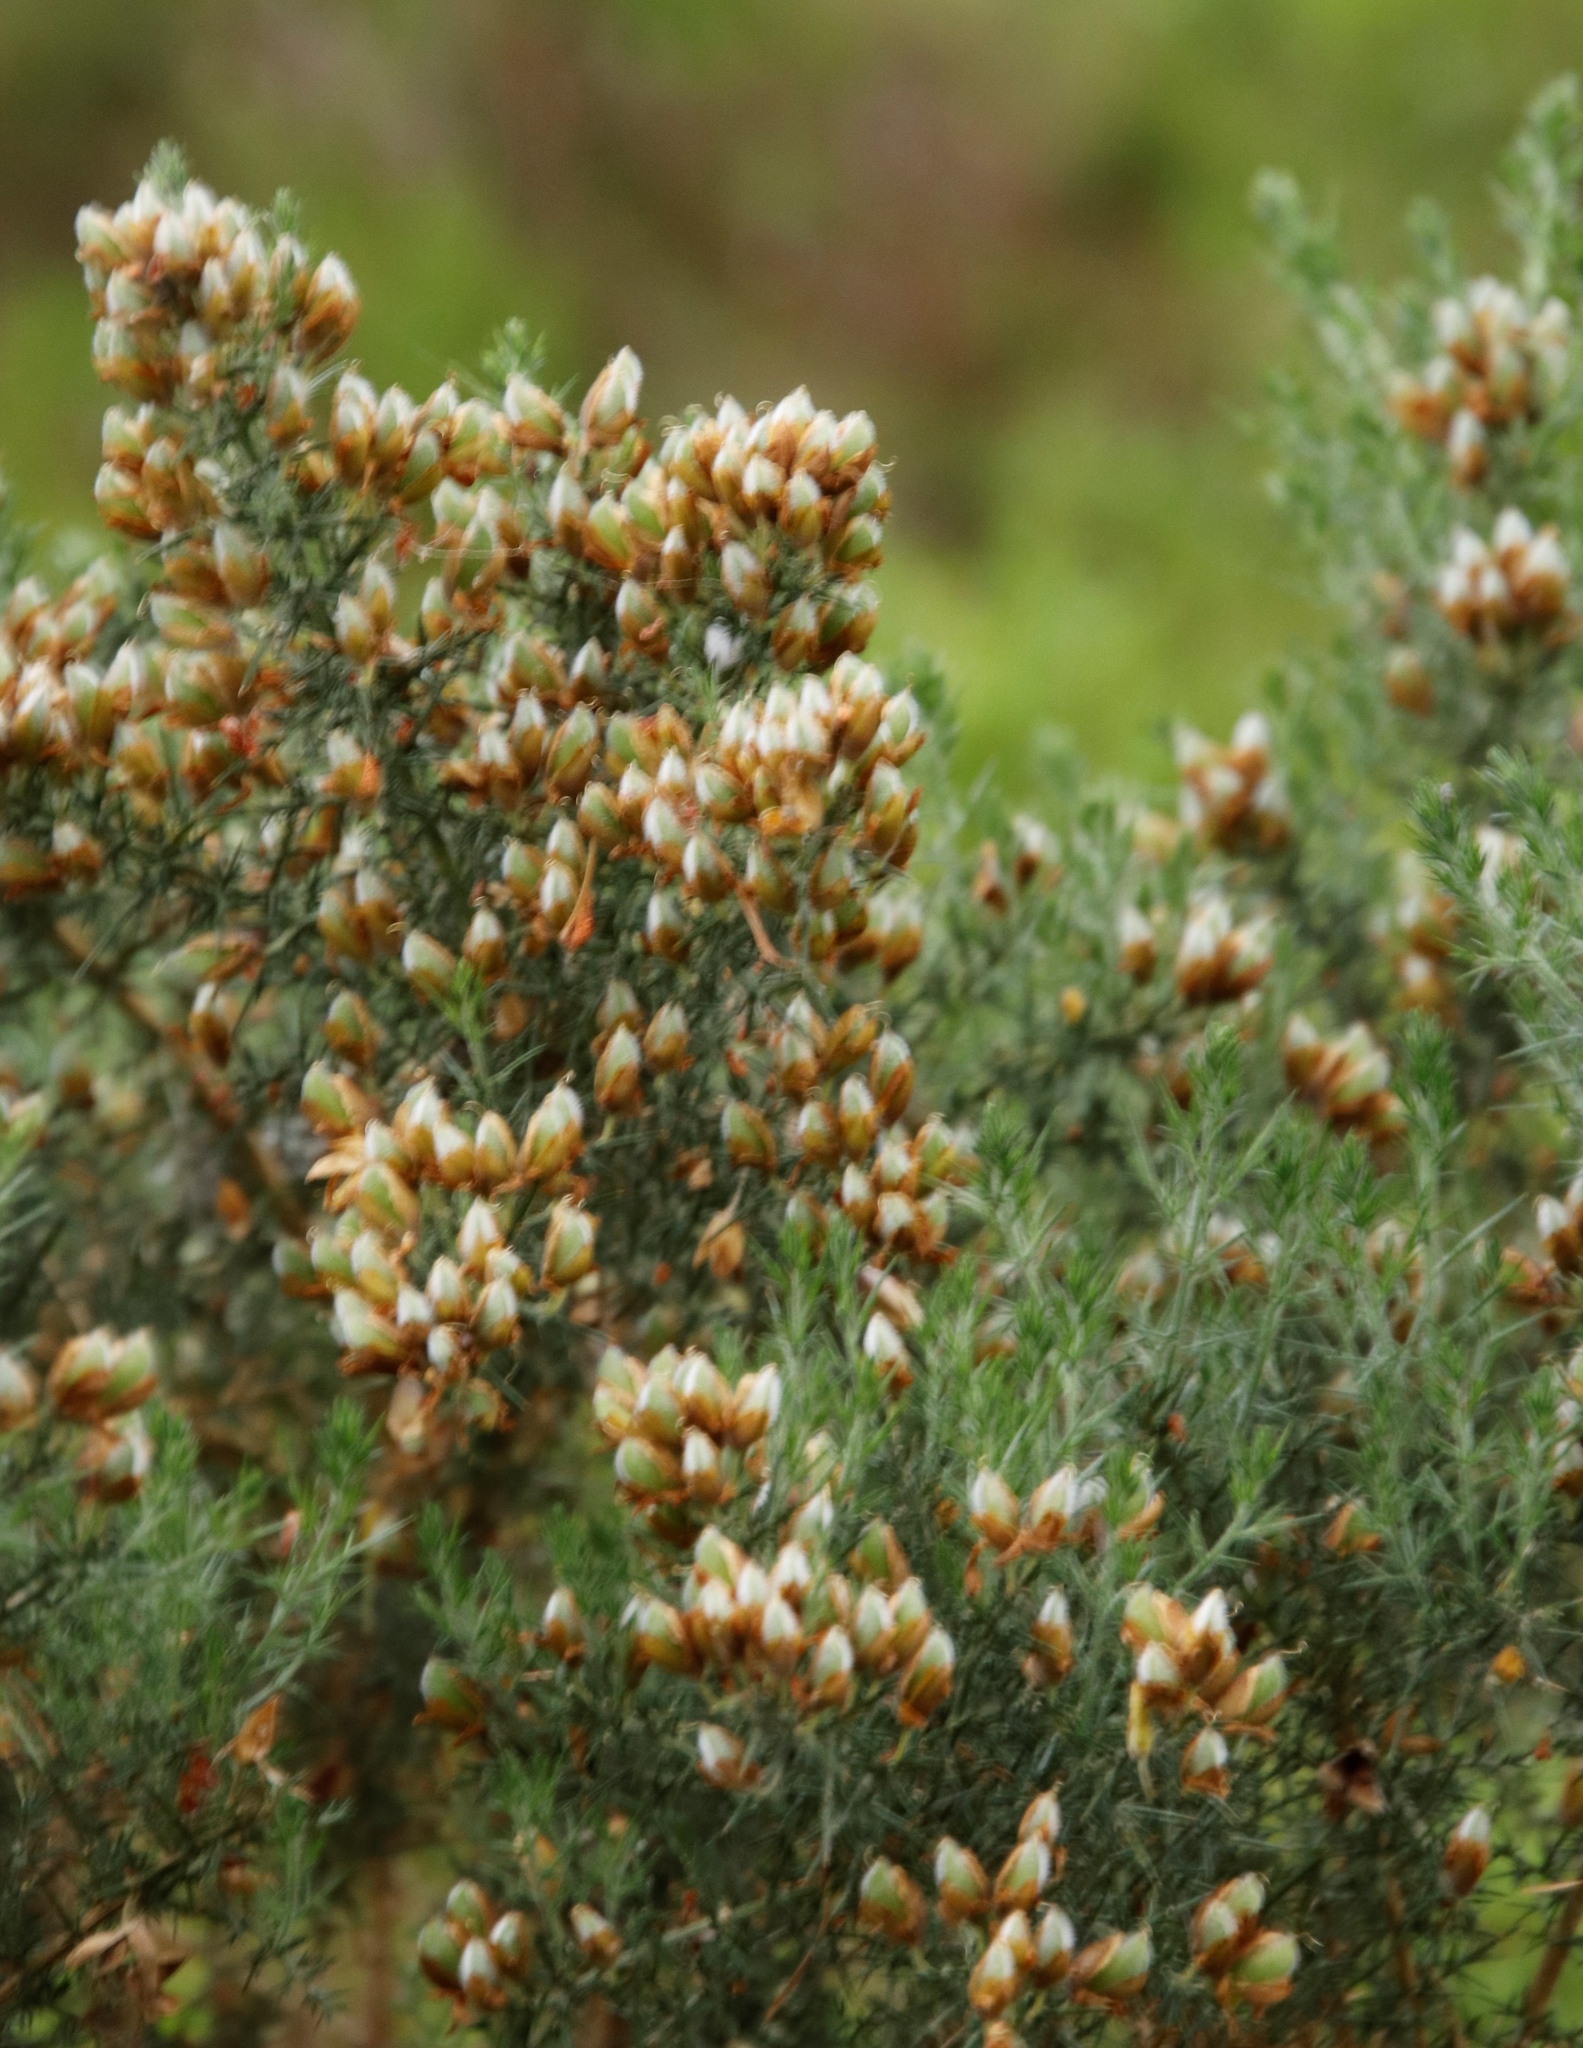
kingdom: Plantae
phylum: Tracheophyta
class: Magnoliopsida
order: Fabales
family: Fabaceae
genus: Ulex
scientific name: Ulex europaeus
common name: Common gorse
